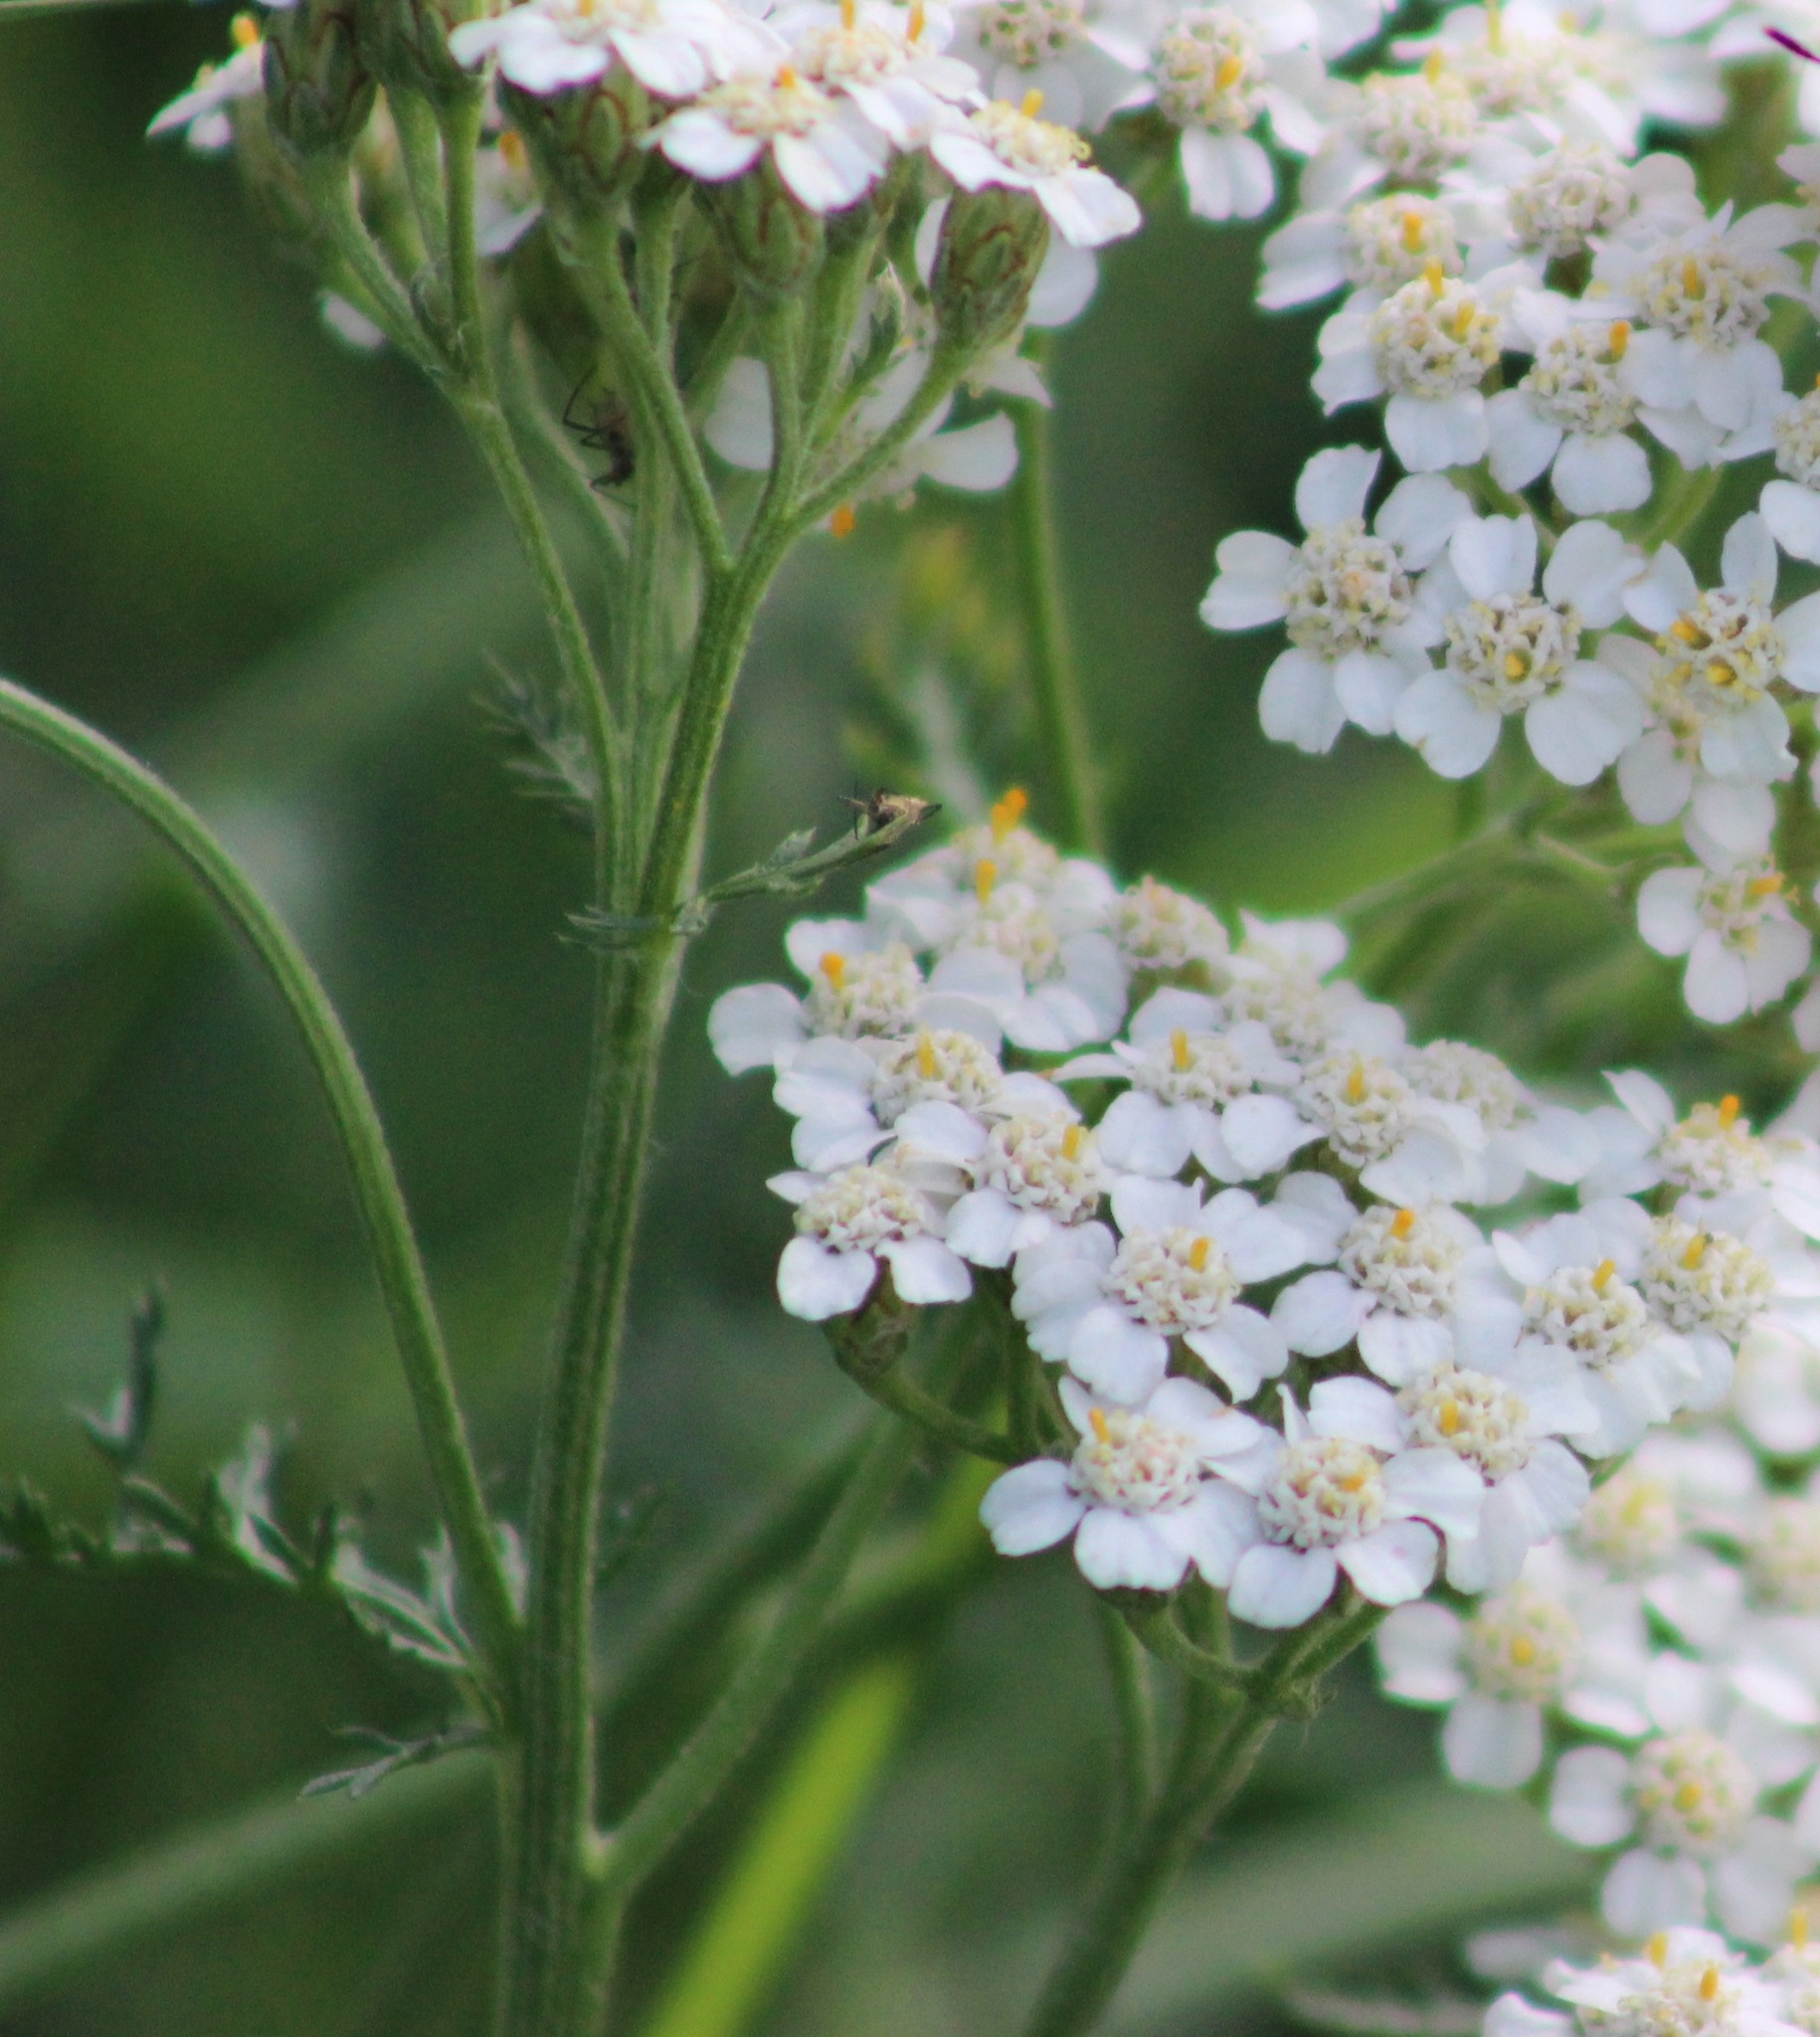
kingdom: Plantae
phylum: Tracheophyta
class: Magnoliopsida
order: Asterales
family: Asteraceae
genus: Achillea
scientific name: Achillea millefolium
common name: Yarrow
